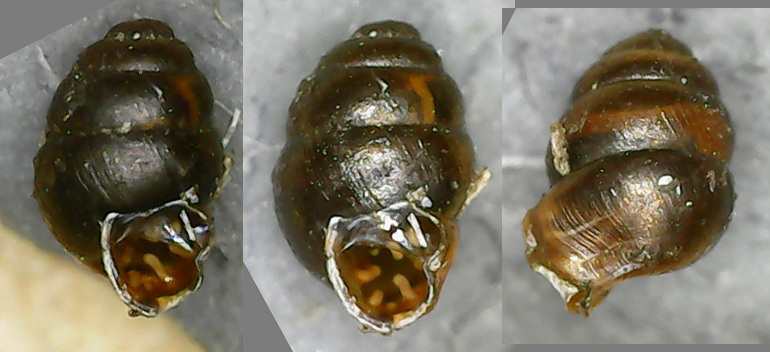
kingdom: Animalia
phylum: Mollusca
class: Gastropoda
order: Stylommatophora
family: Vertiginidae
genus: Vertigo
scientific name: Vertigo antivertigo
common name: Marsh whorl snail
